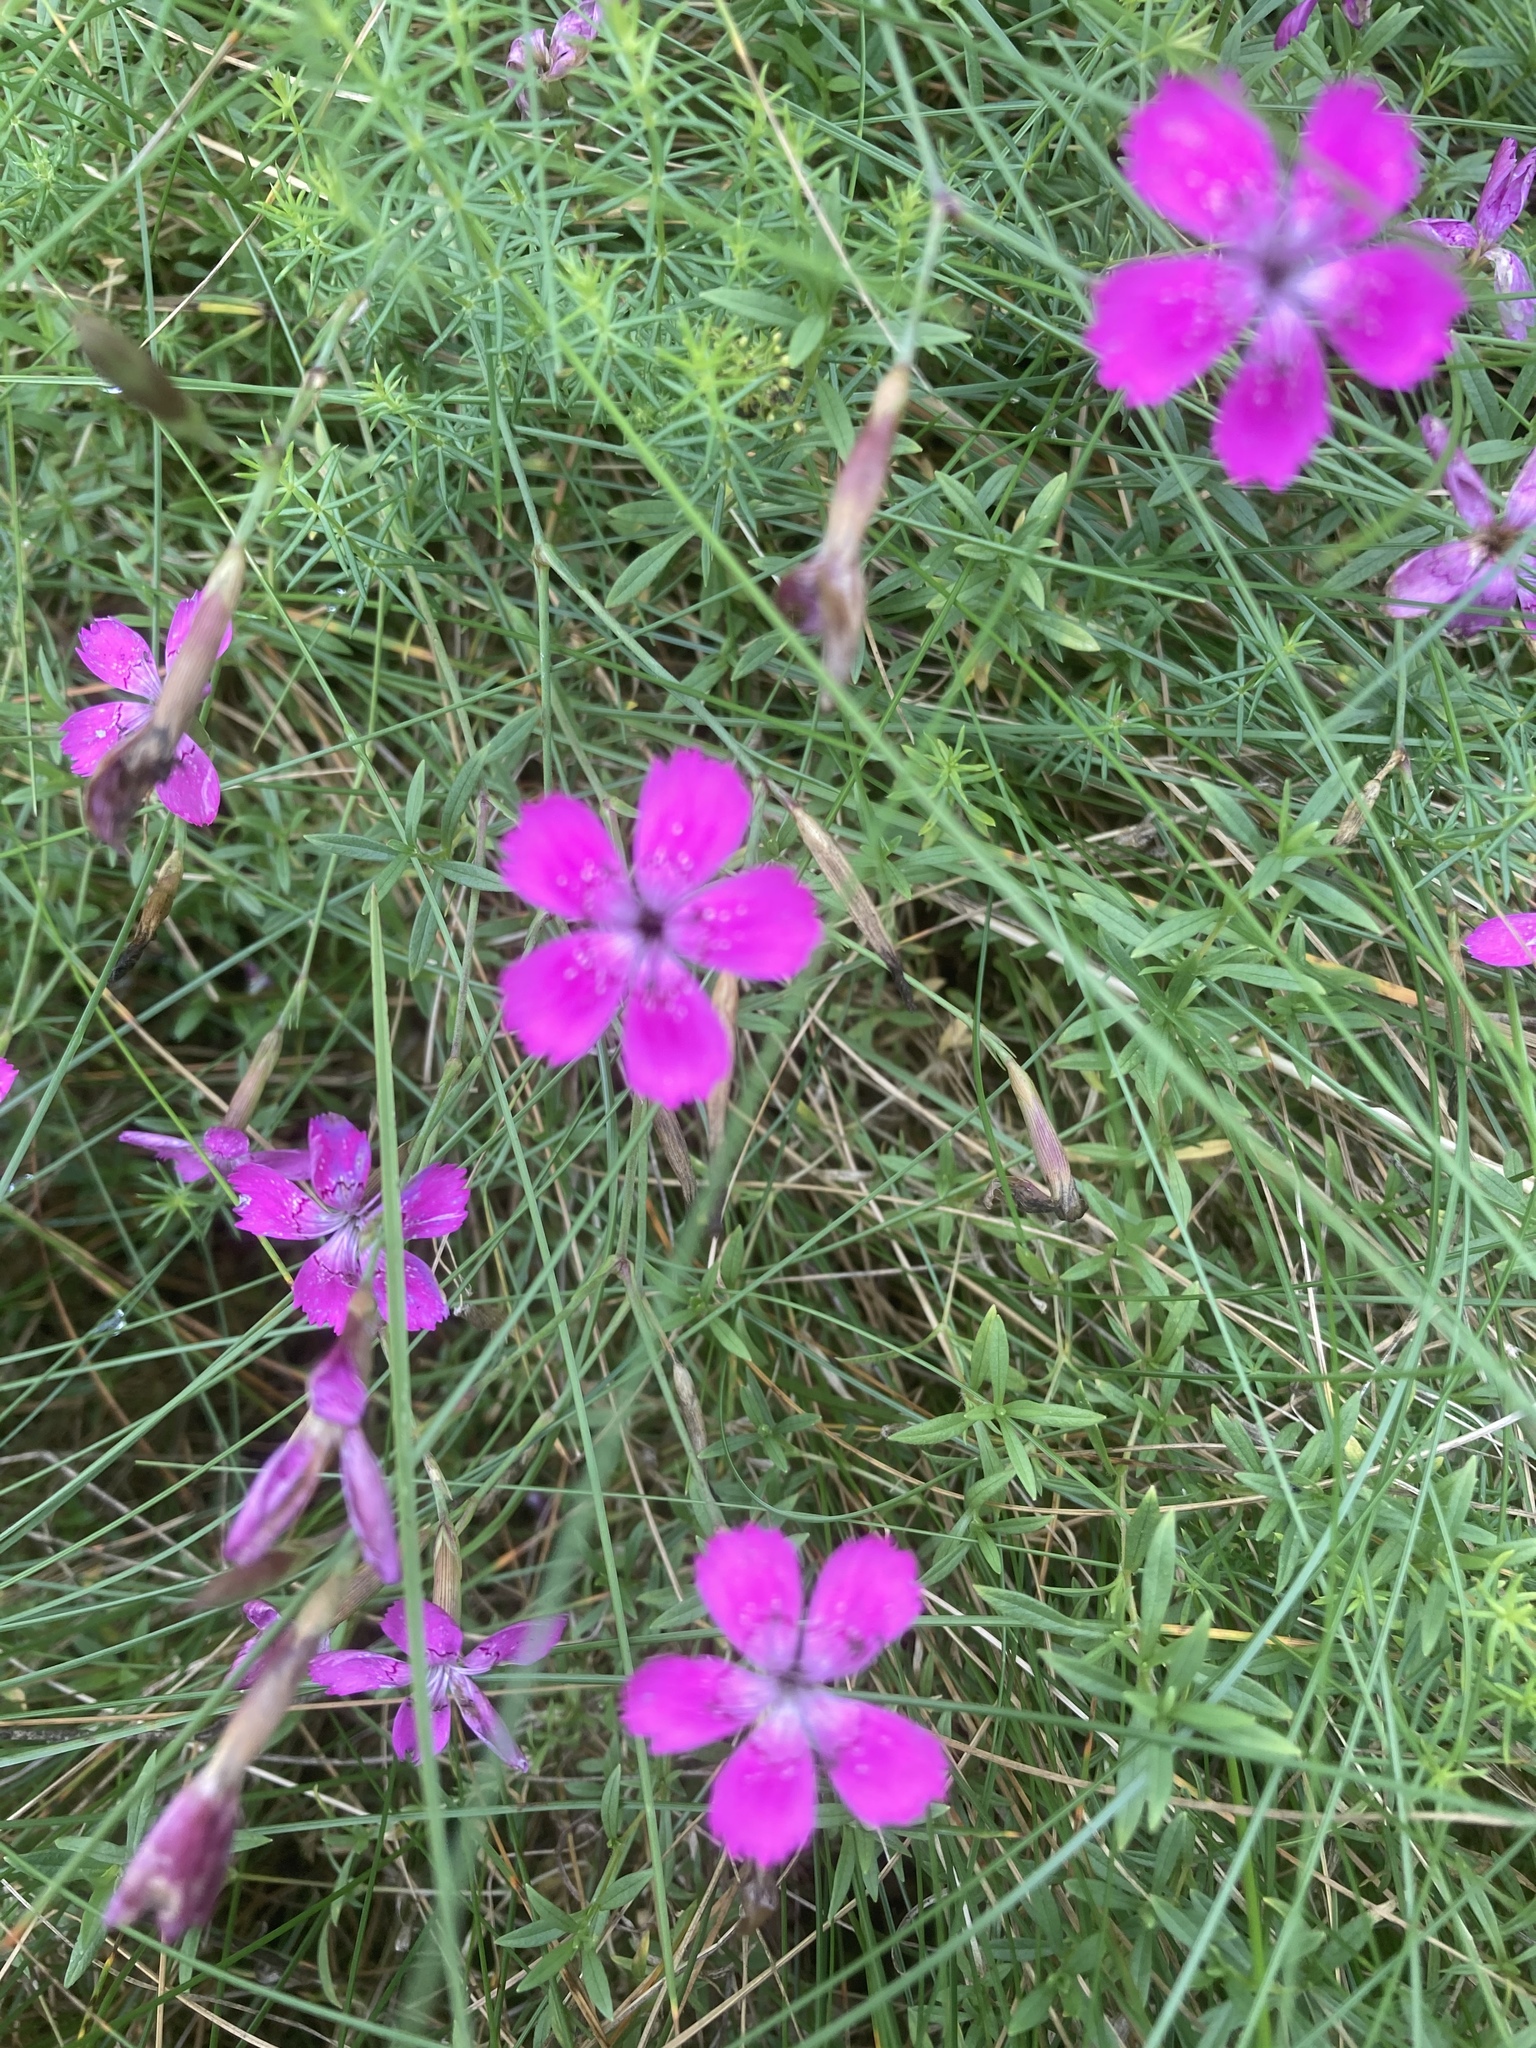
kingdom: Plantae
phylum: Tracheophyta
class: Magnoliopsida
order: Caryophyllales
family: Caryophyllaceae
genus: Dianthus
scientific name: Dianthus deltoides
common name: Maiden pink
